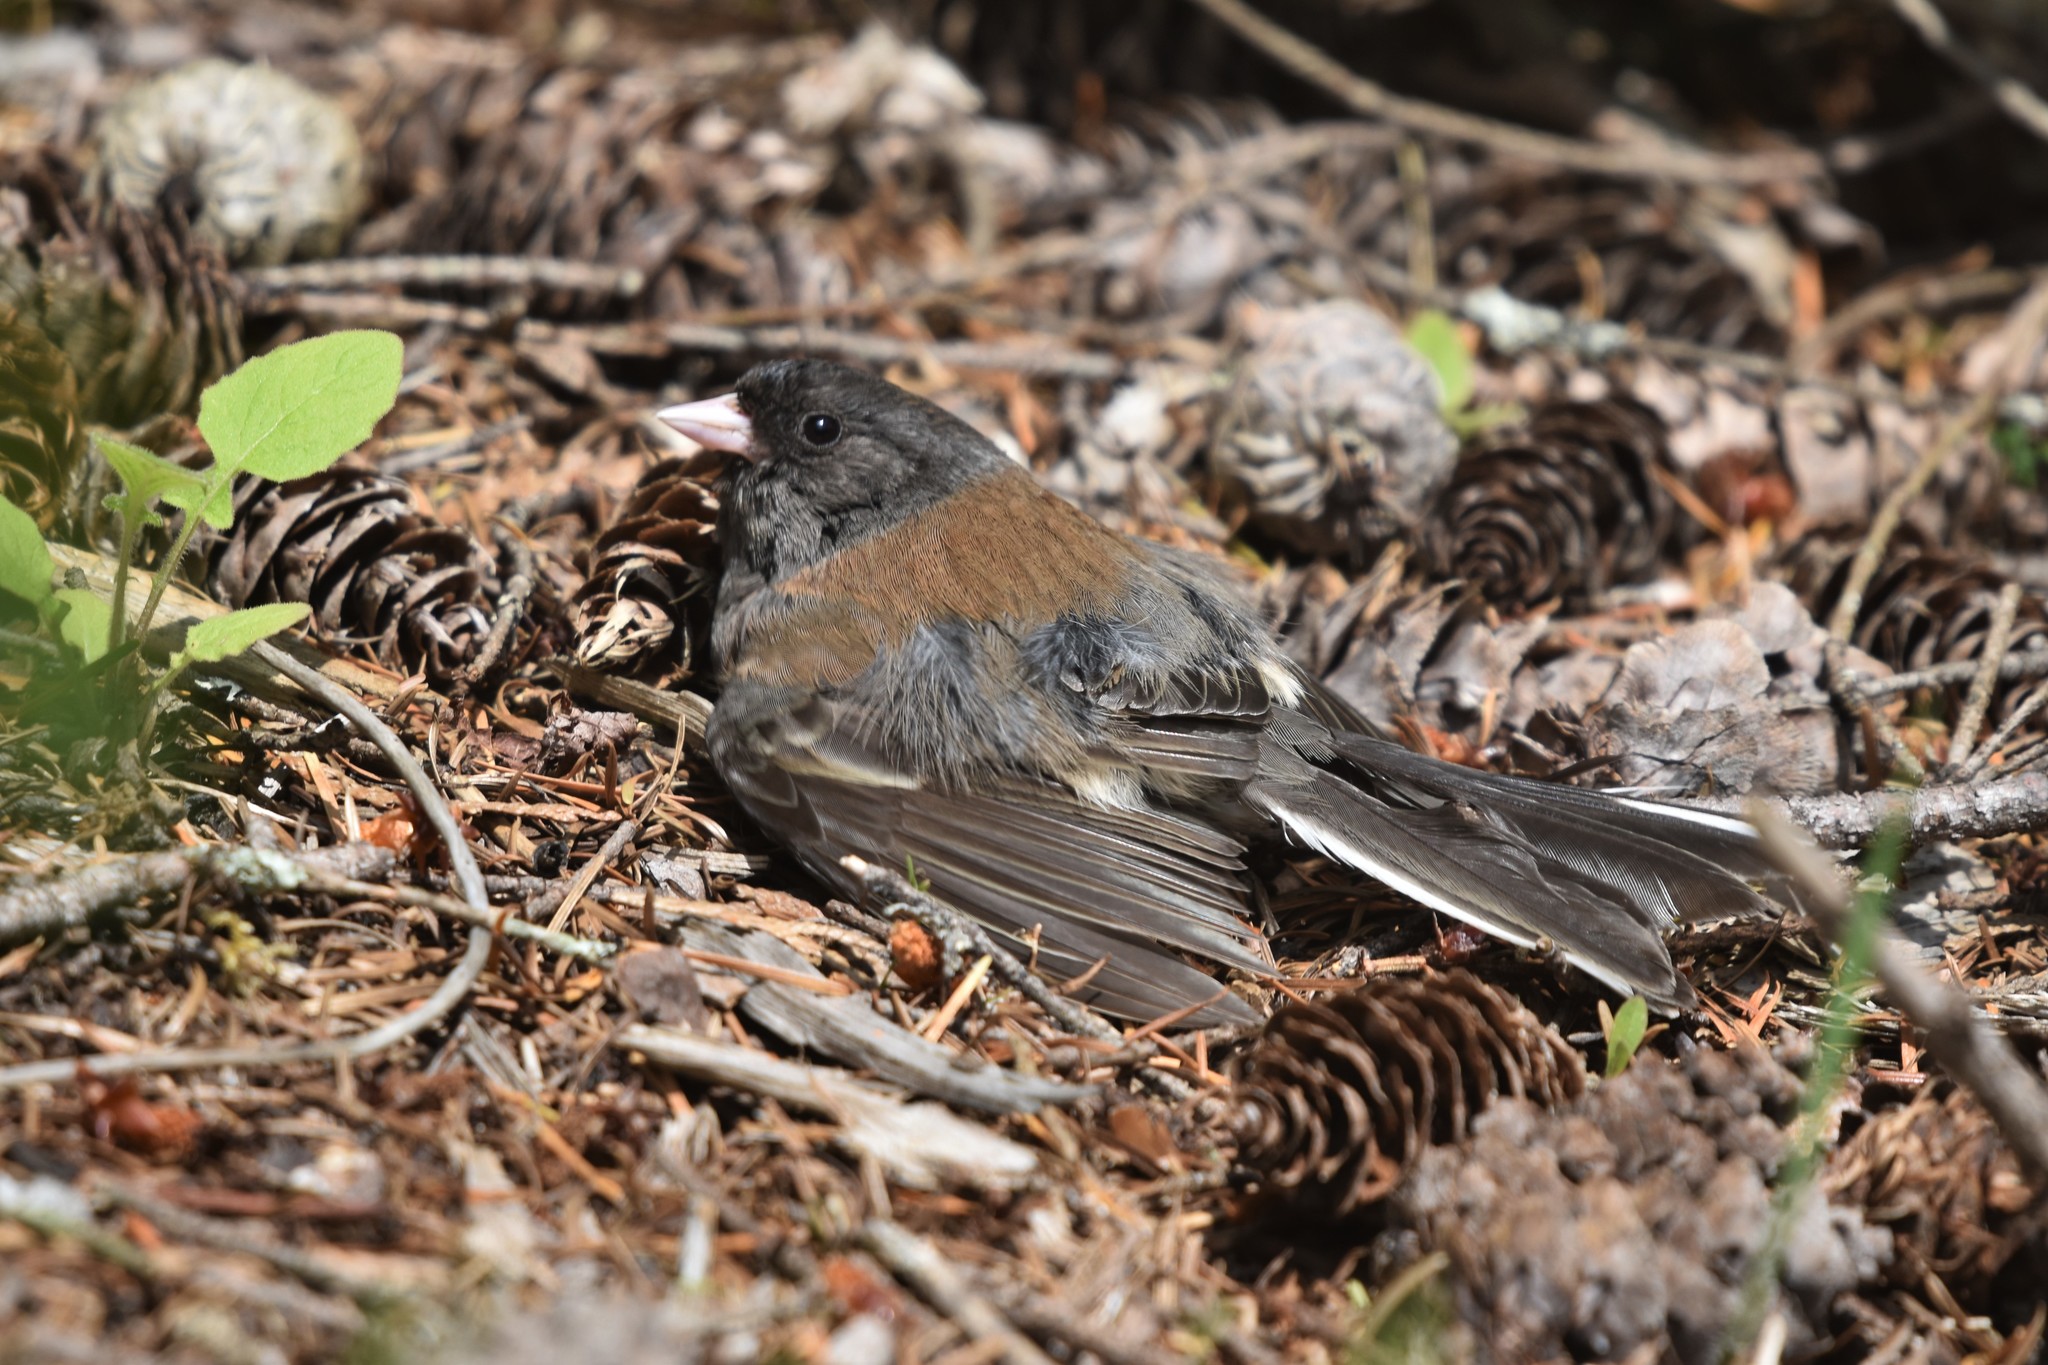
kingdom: Animalia
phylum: Chordata
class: Aves
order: Passeriformes
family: Passerellidae
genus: Junco
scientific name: Junco hyemalis
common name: Dark-eyed junco
